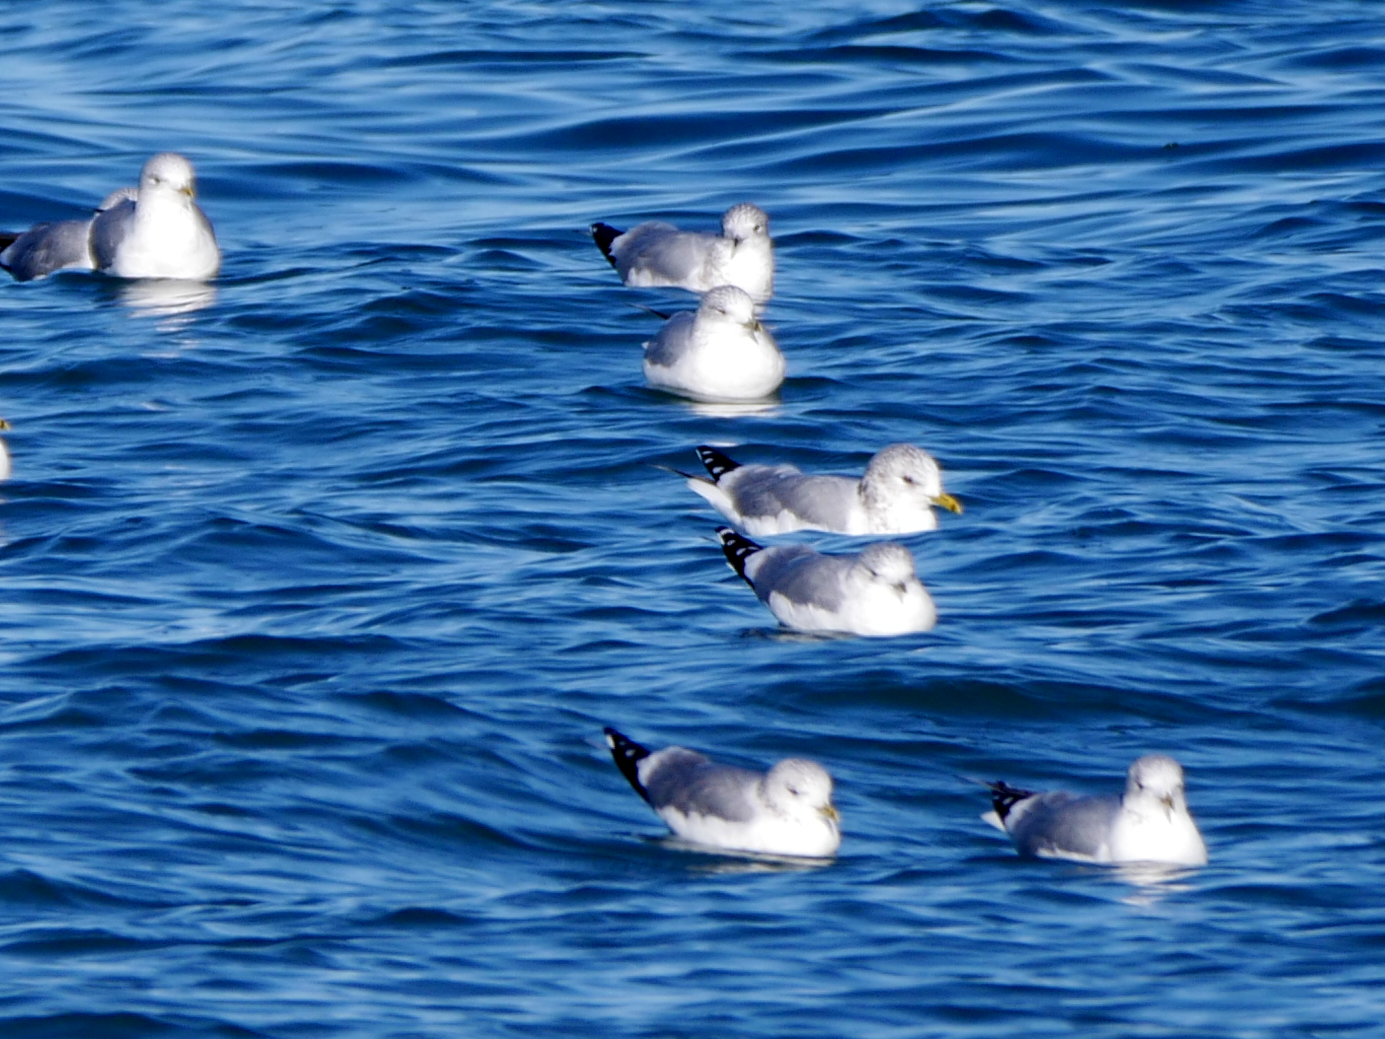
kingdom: Animalia
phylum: Chordata
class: Aves
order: Charadriiformes
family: Laridae
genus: Larus
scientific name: Larus canus
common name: Mew gull
